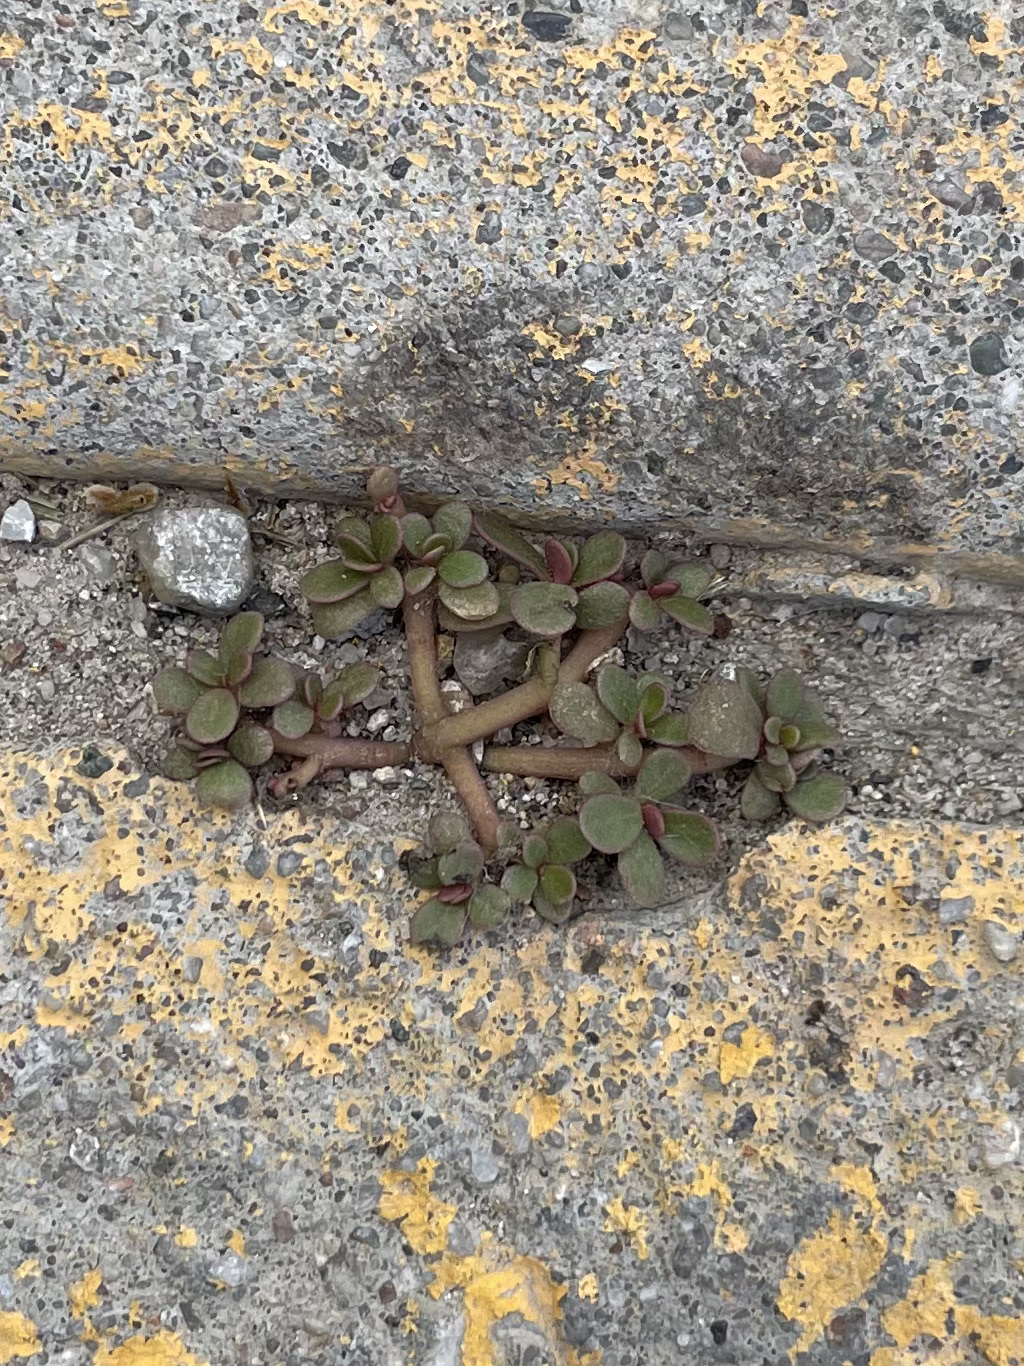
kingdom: Plantae
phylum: Tracheophyta
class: Magnoliopsida
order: Caryophyllales
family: Portulacaceae
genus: Portulaca
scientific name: Portulaca oleracea
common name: Common purslane
